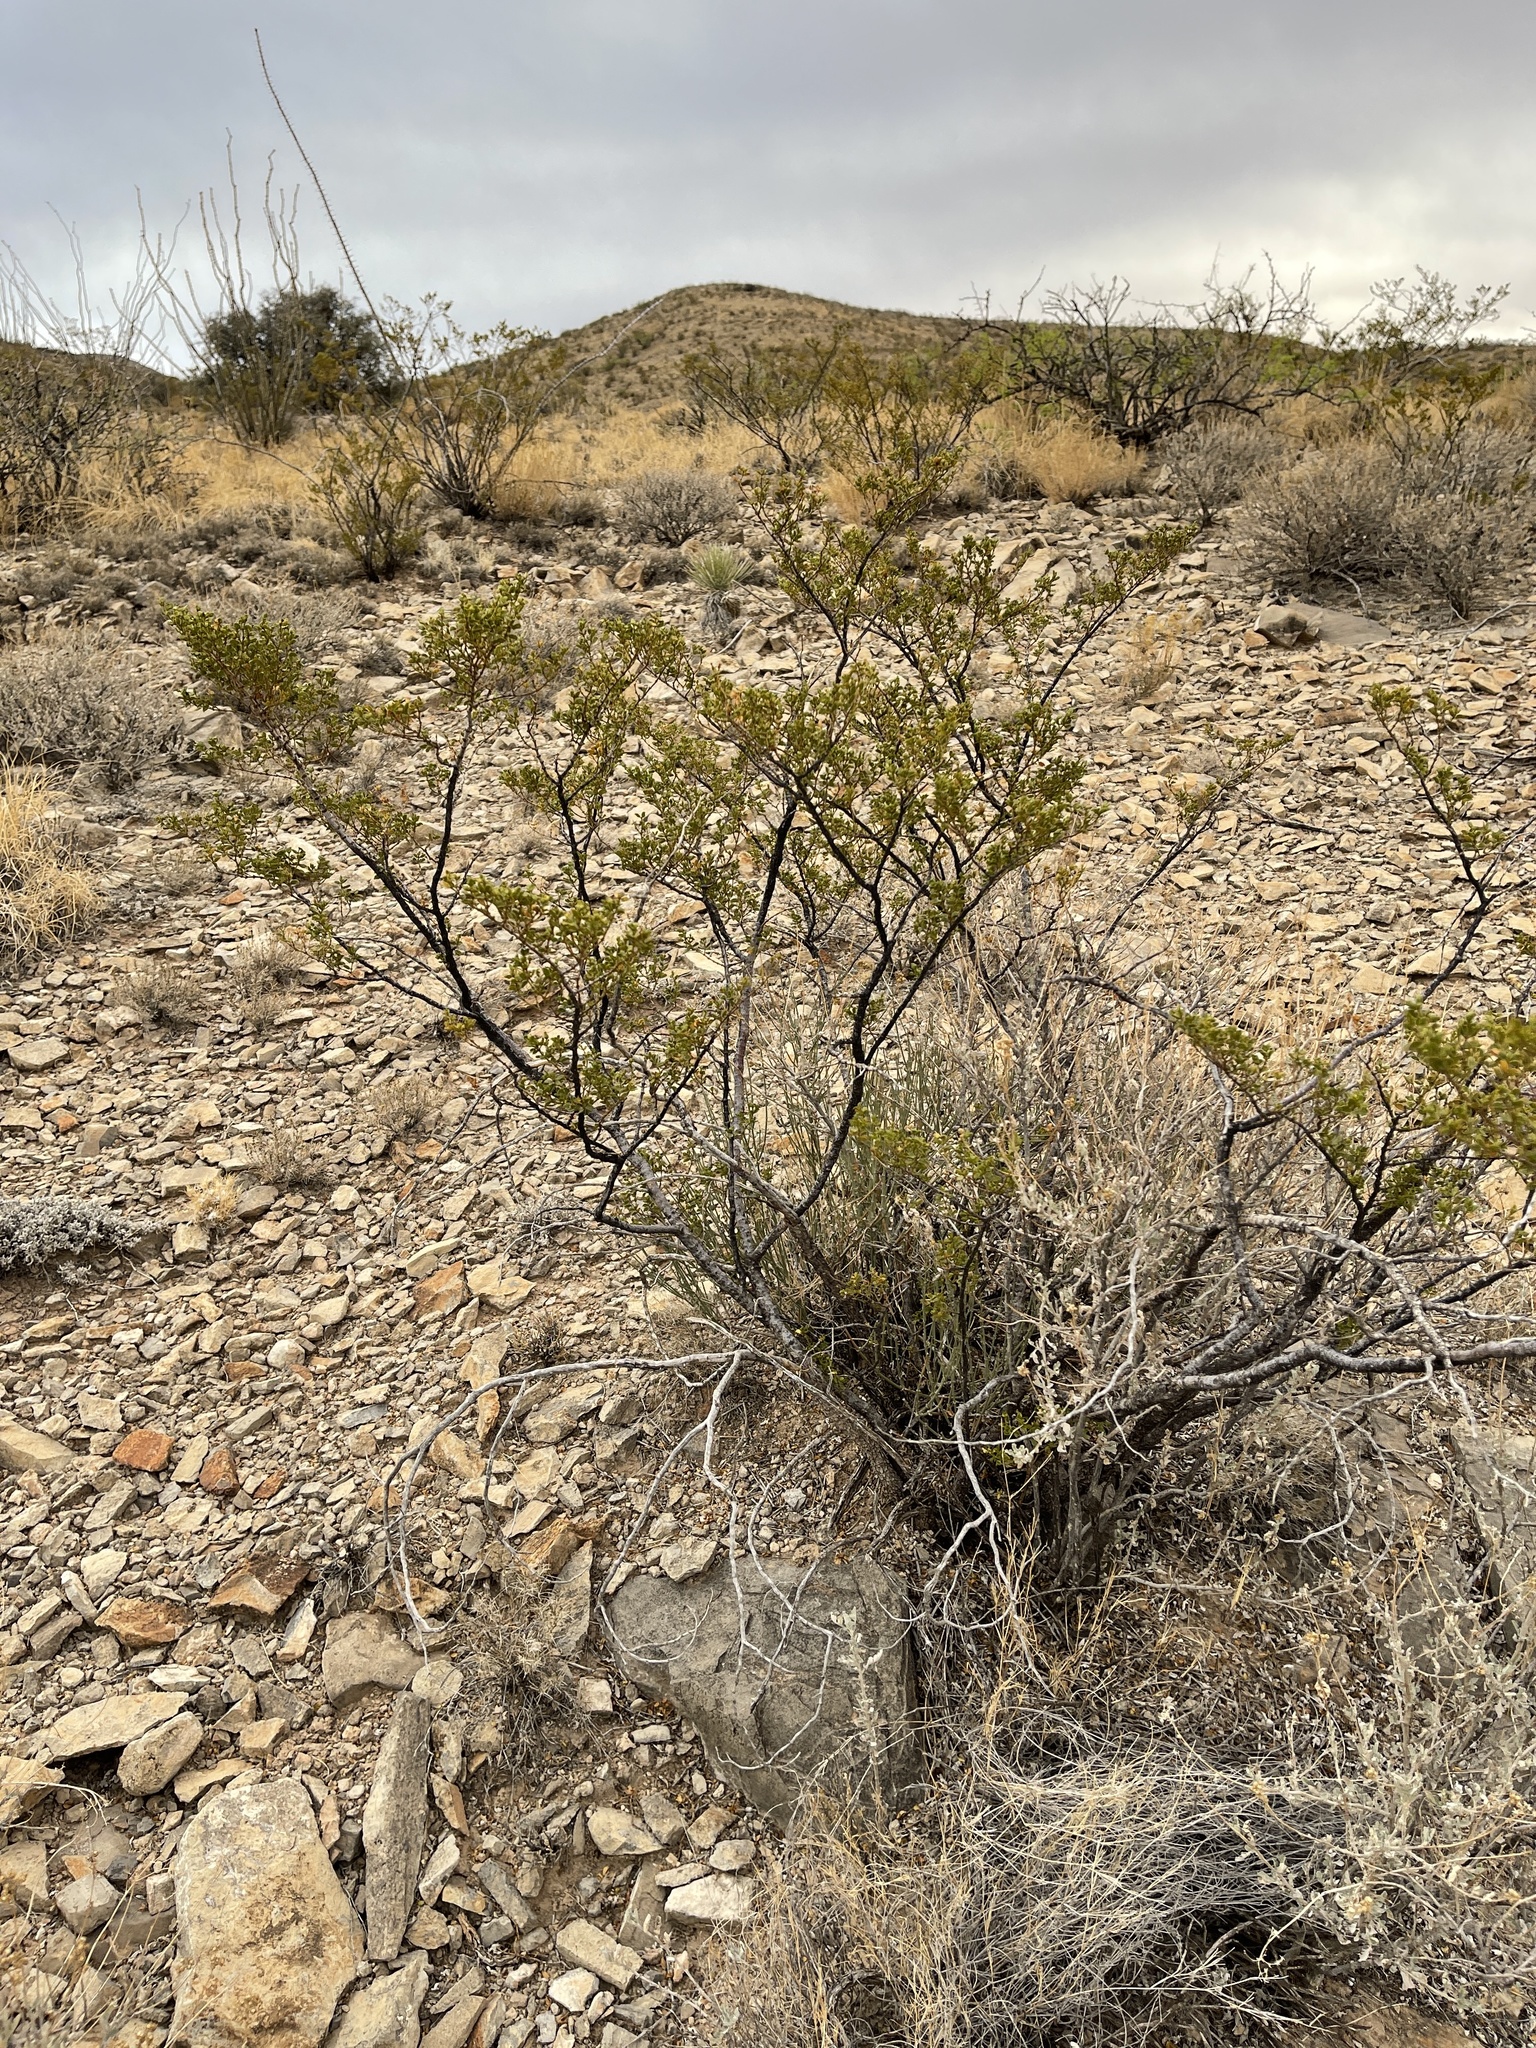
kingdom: Plantae
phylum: Tracheophyta
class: Magnoliopsida
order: Zygophyllales
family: Zygophyllaceae
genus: Larrea
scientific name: Larrea tridentata
